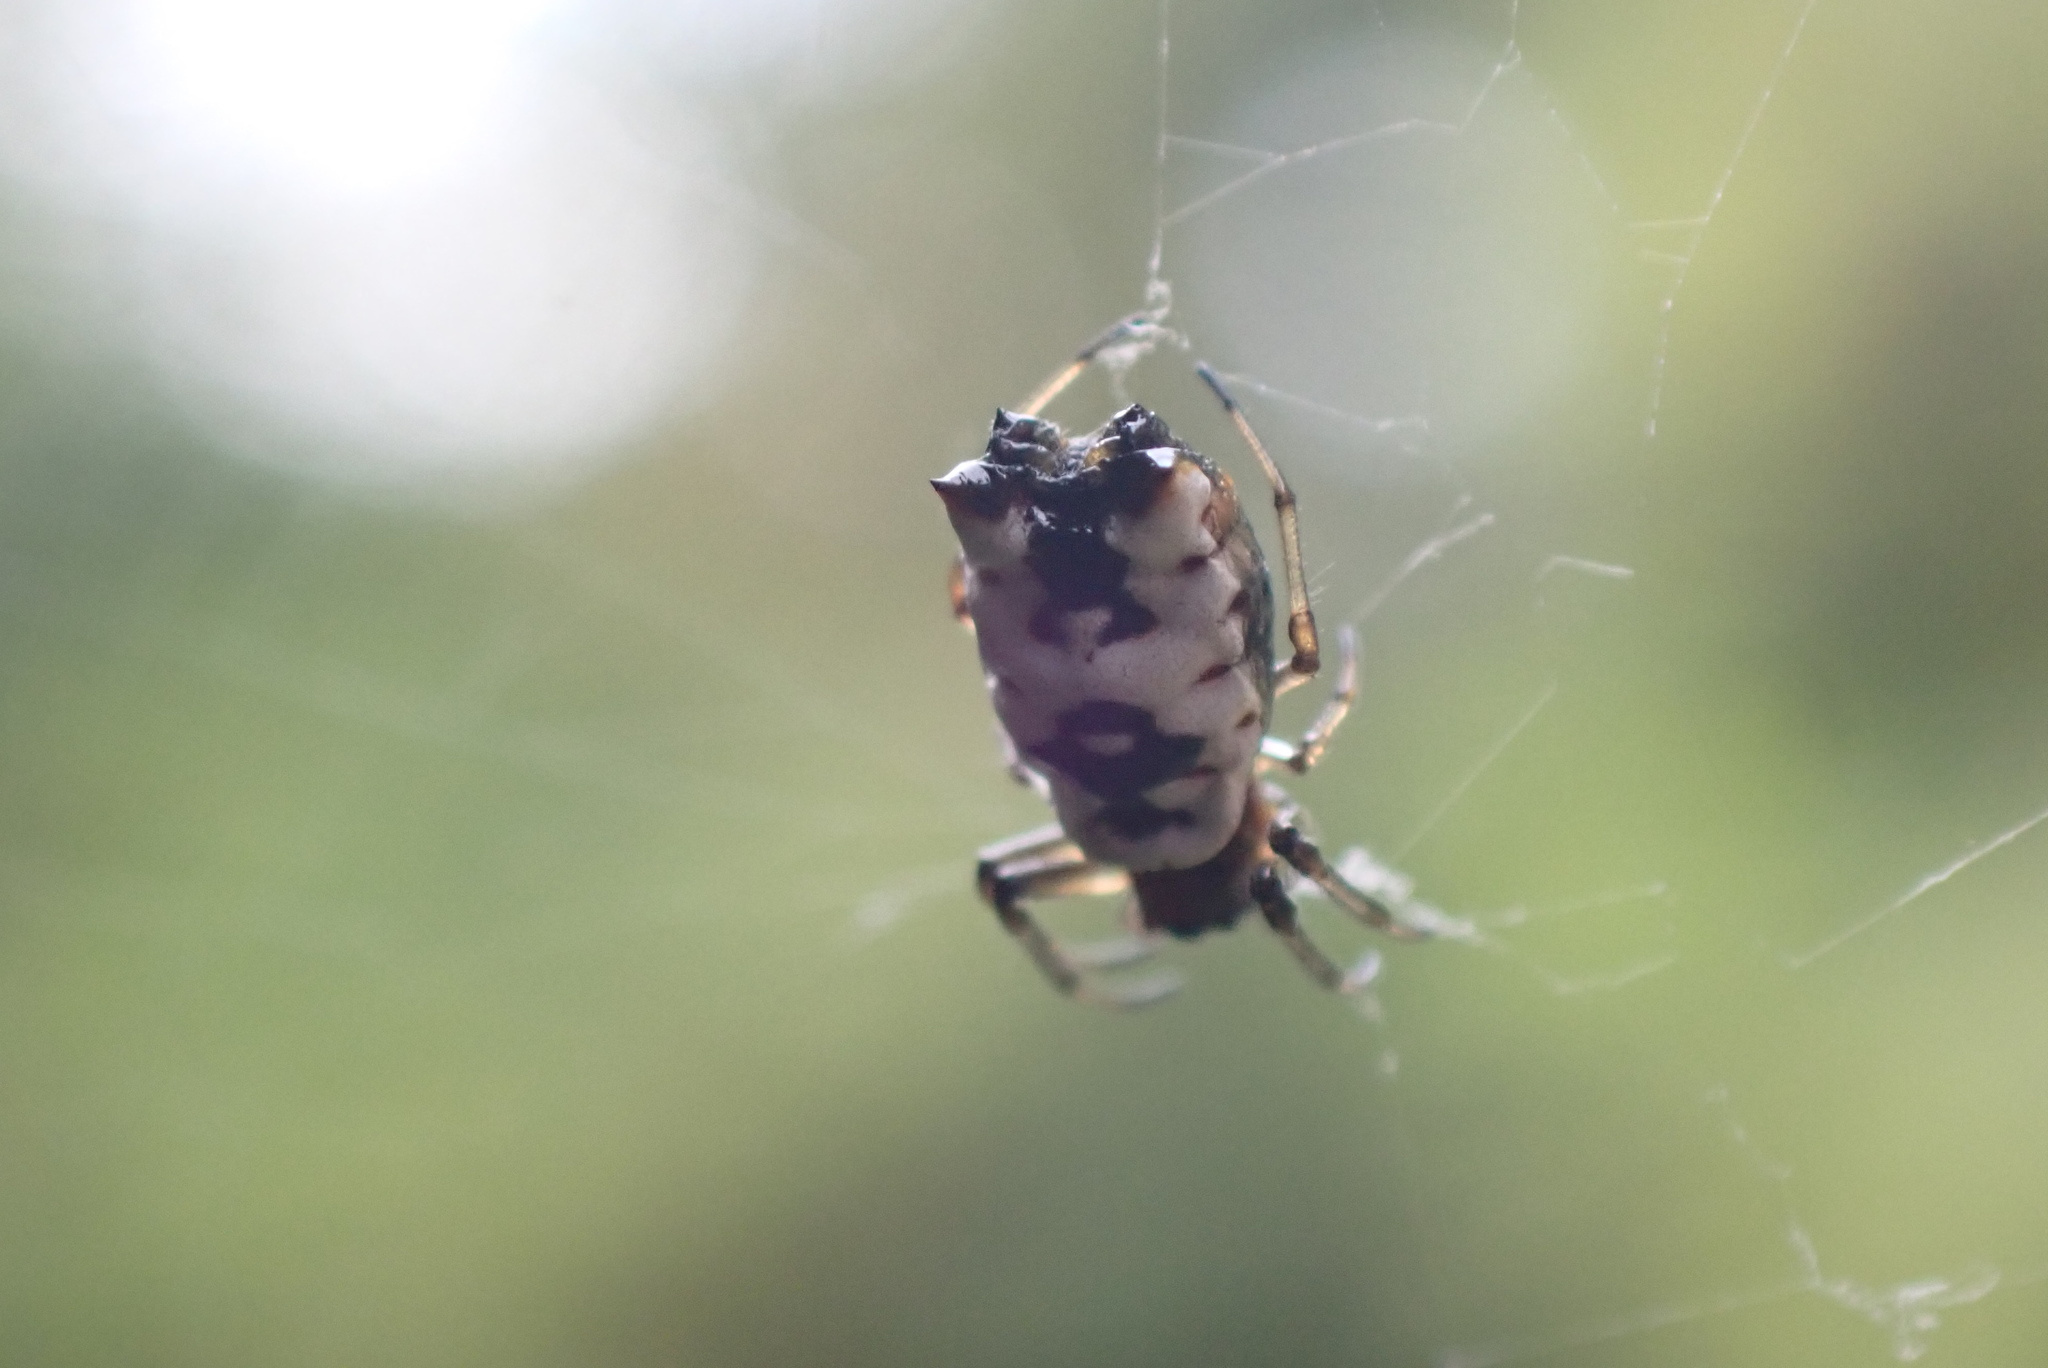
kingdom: Animalia
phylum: Arthropoda
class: Arachnida
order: Araneae
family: Araneidae
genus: Micrathena
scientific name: Micrathena mitrata
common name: Orb weavers
